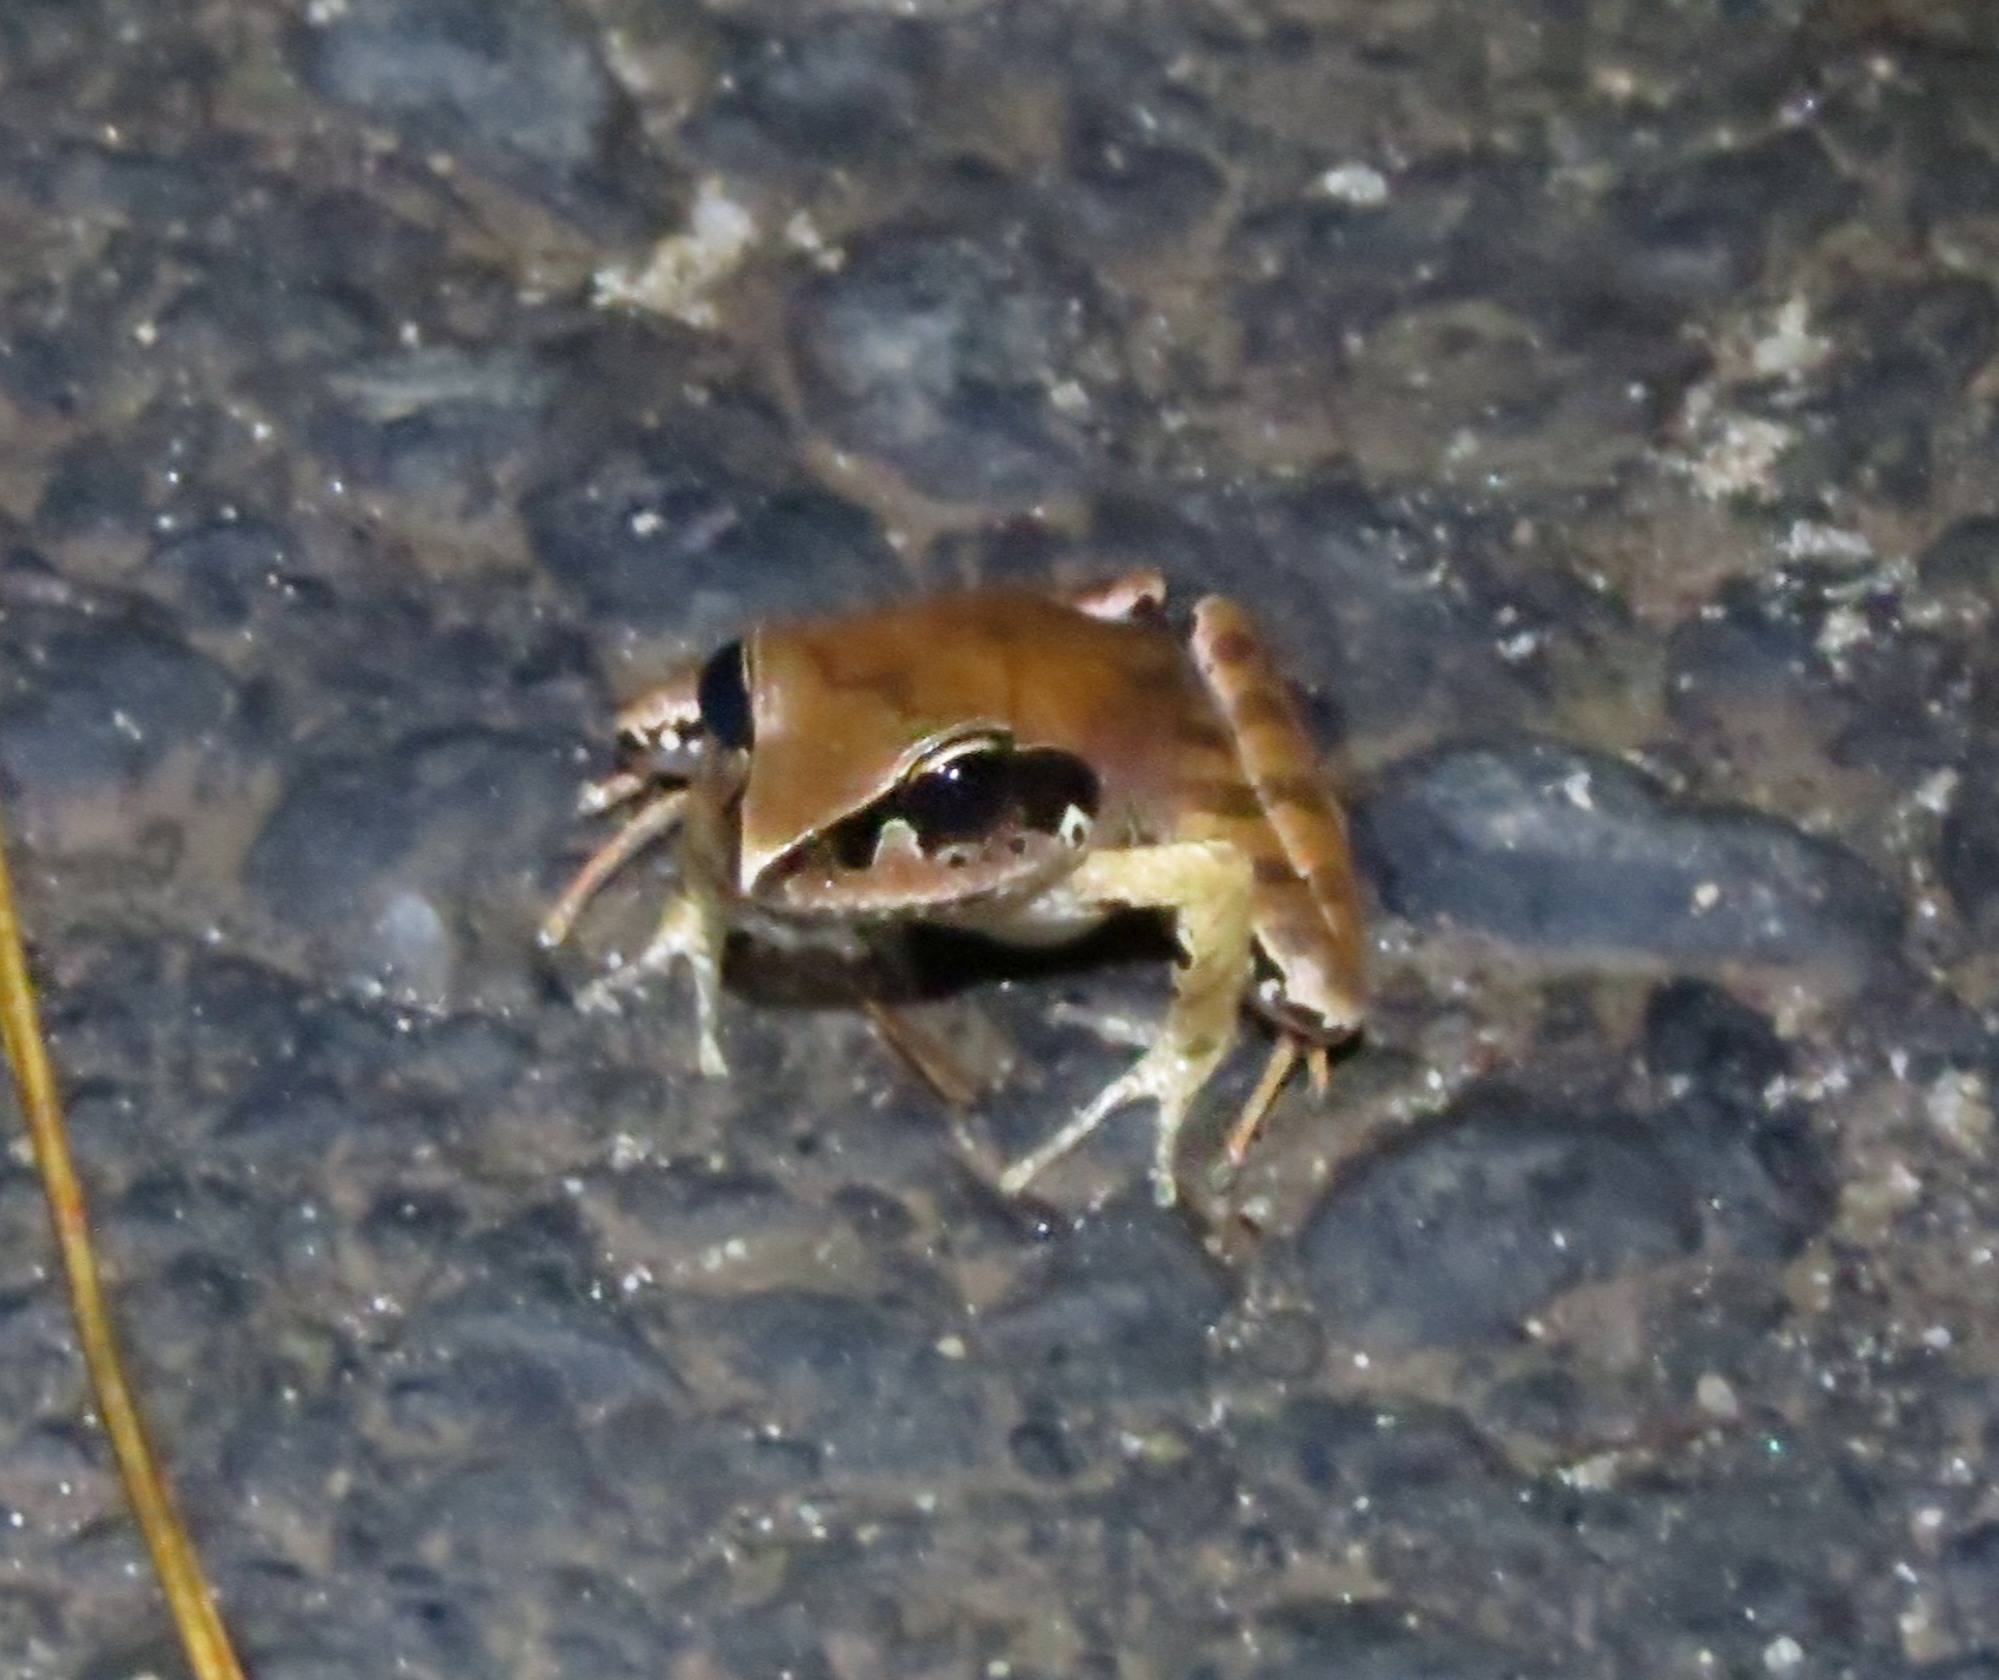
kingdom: Animalia
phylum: Chordata
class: Amphibia
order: Anura
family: Mantellidae
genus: Aglyptodactylus
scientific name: Aglyptodactylus madagascariensis
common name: Madagascar jumping frog
